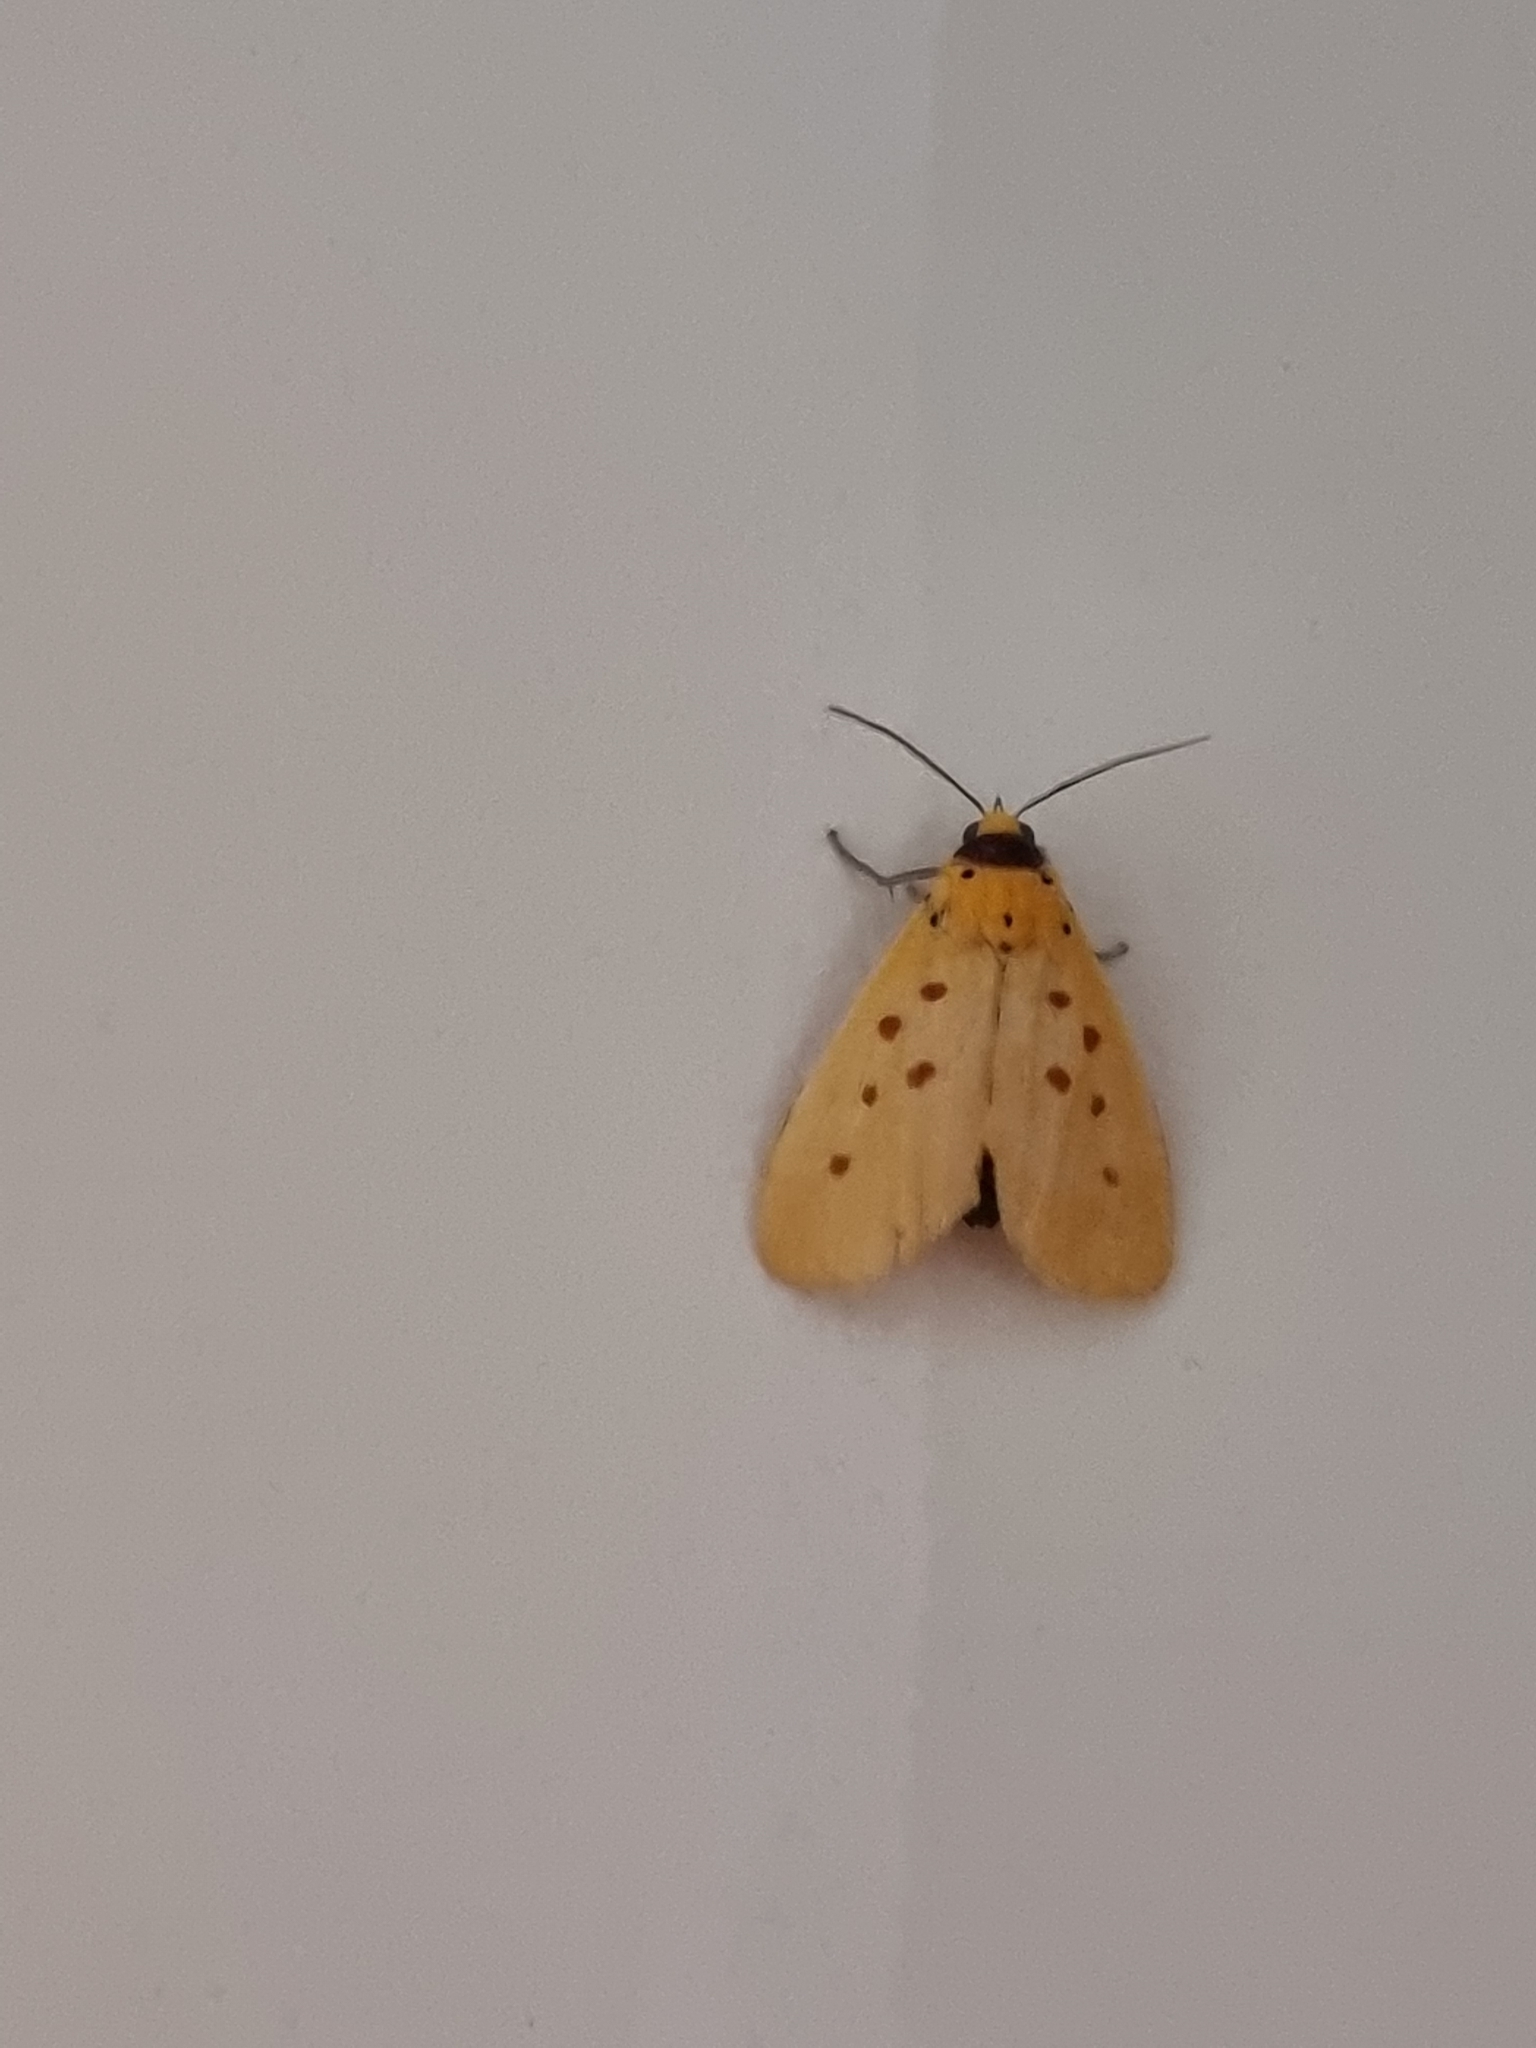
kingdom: Animalia
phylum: Arthropoda
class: Insecta
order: Lepidoptera
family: Noctuidae
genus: Agape
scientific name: Agape chloropyga
